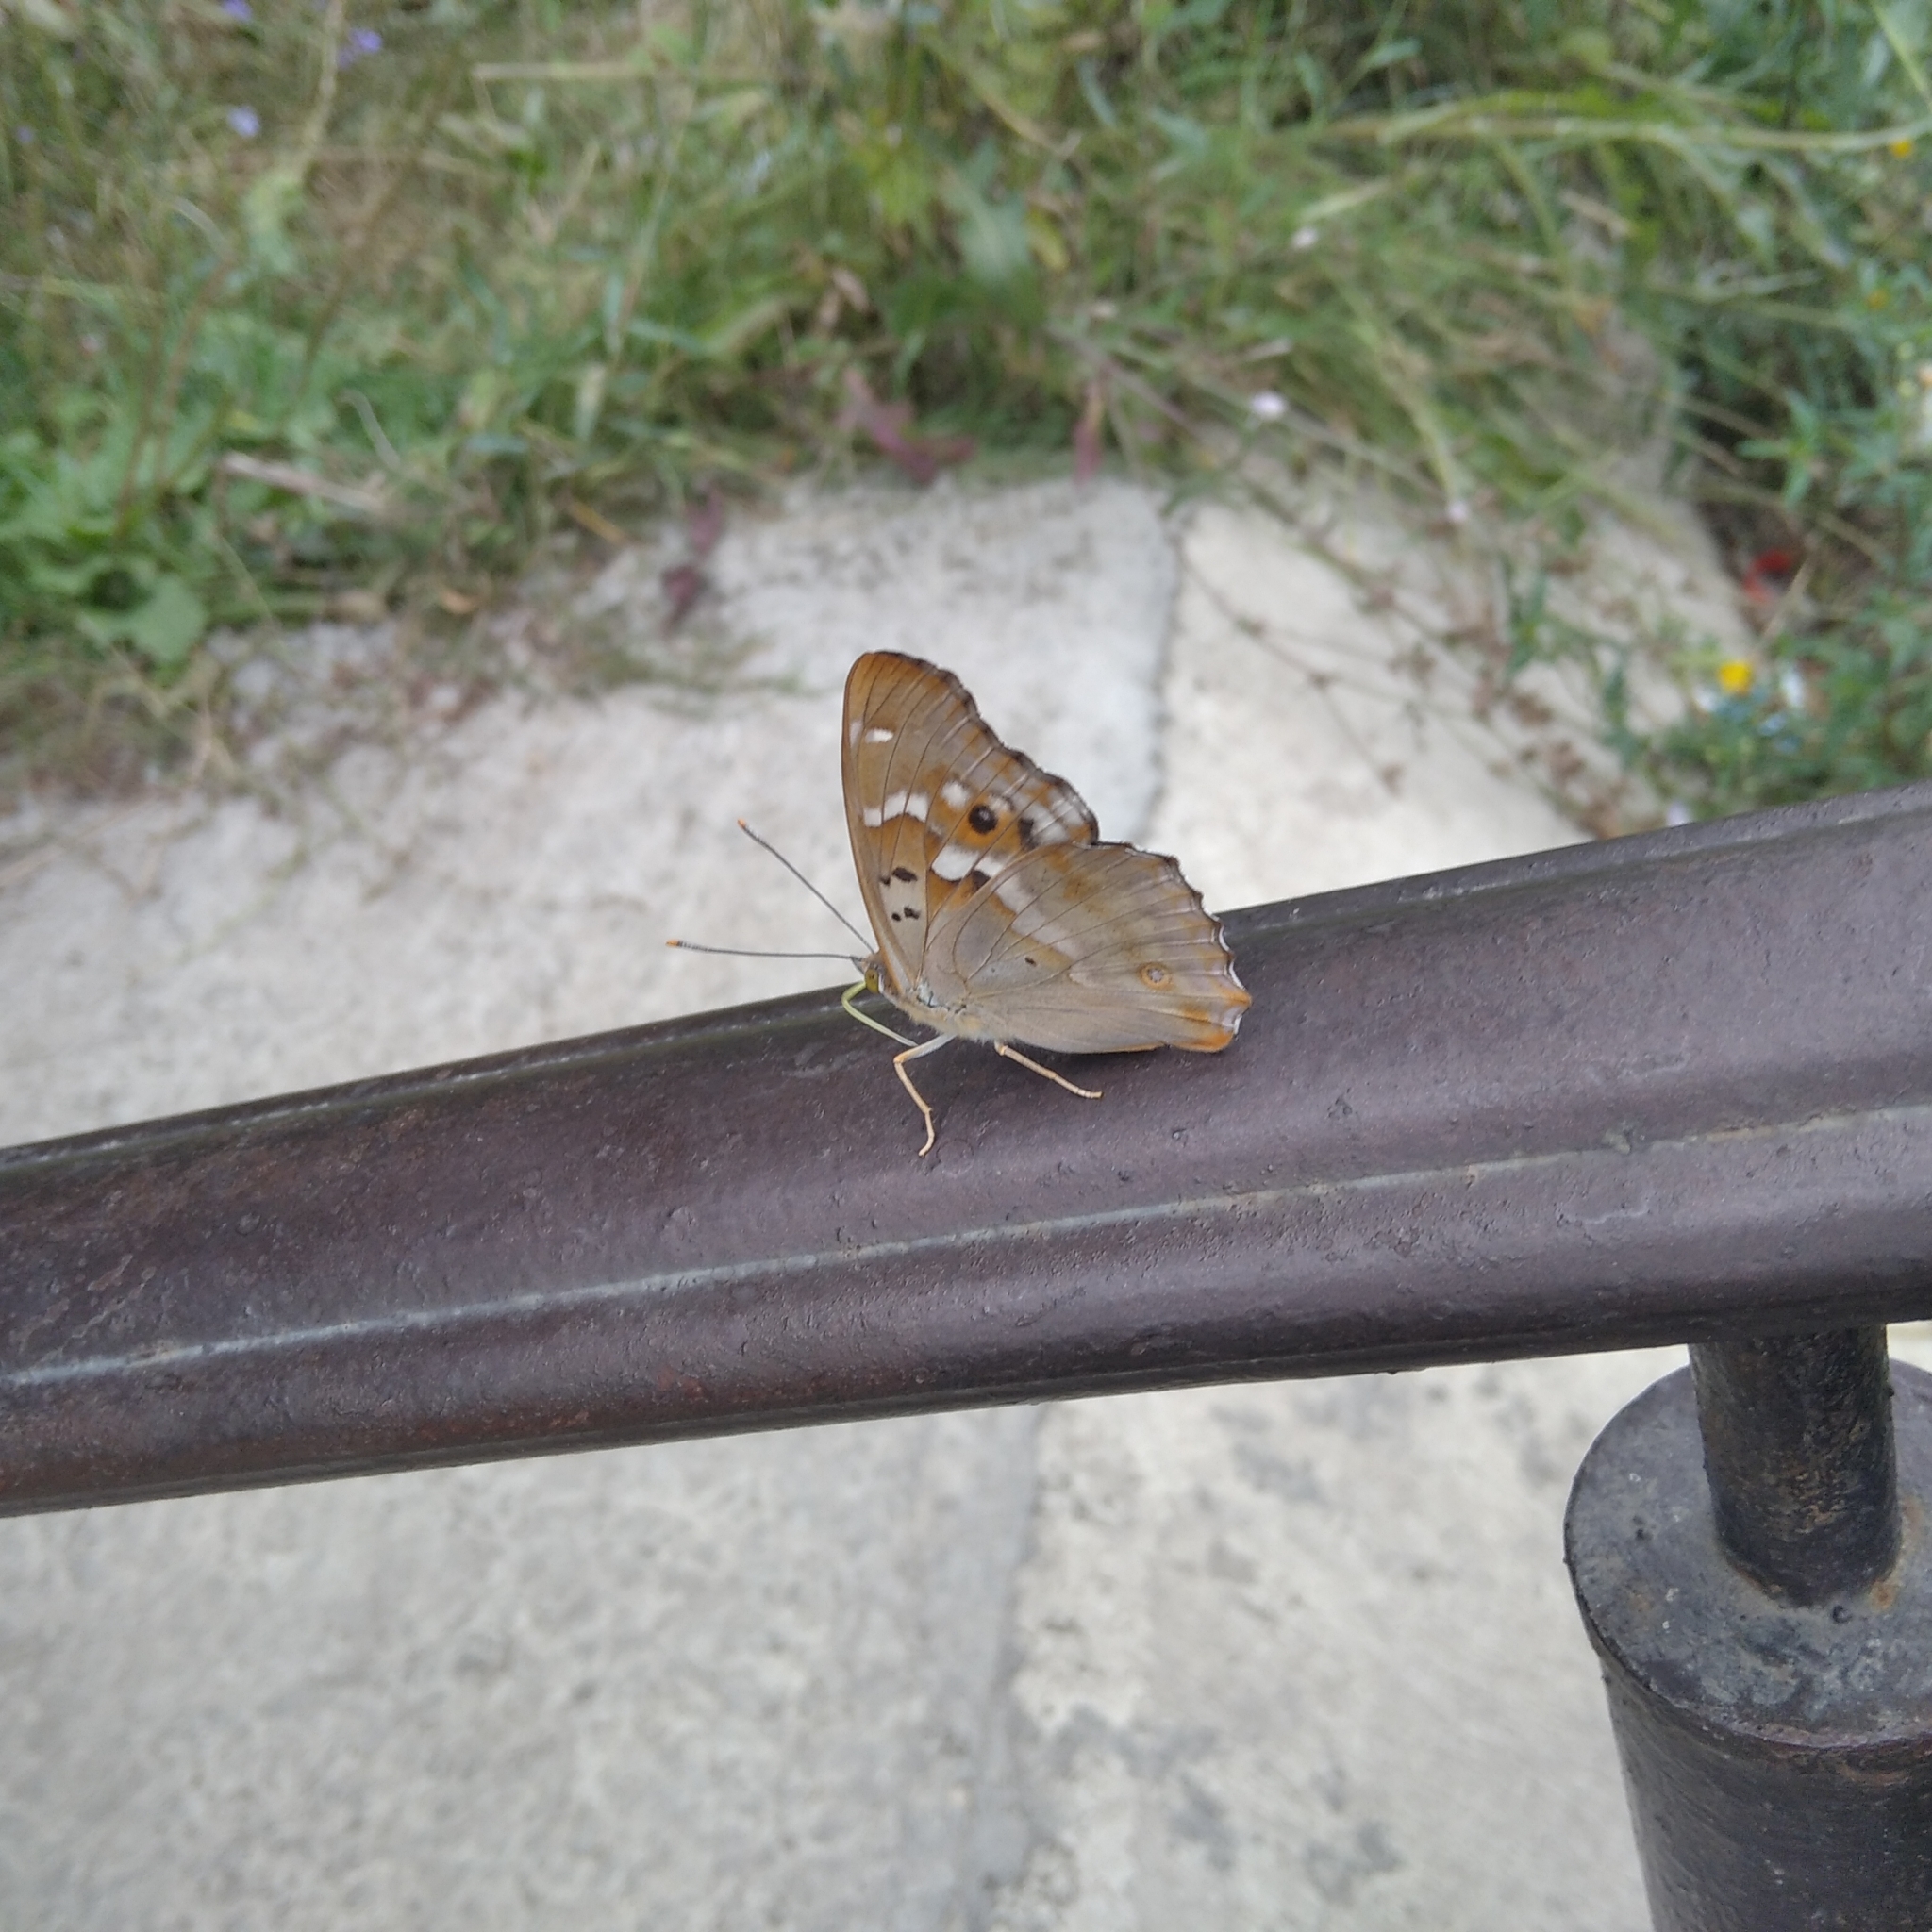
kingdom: Animalia
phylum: Arthropoda
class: Insecta
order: Lepidoptera
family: Nymphalidae
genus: Apatura
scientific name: Apatura ilia
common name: Lesser purple emperor
